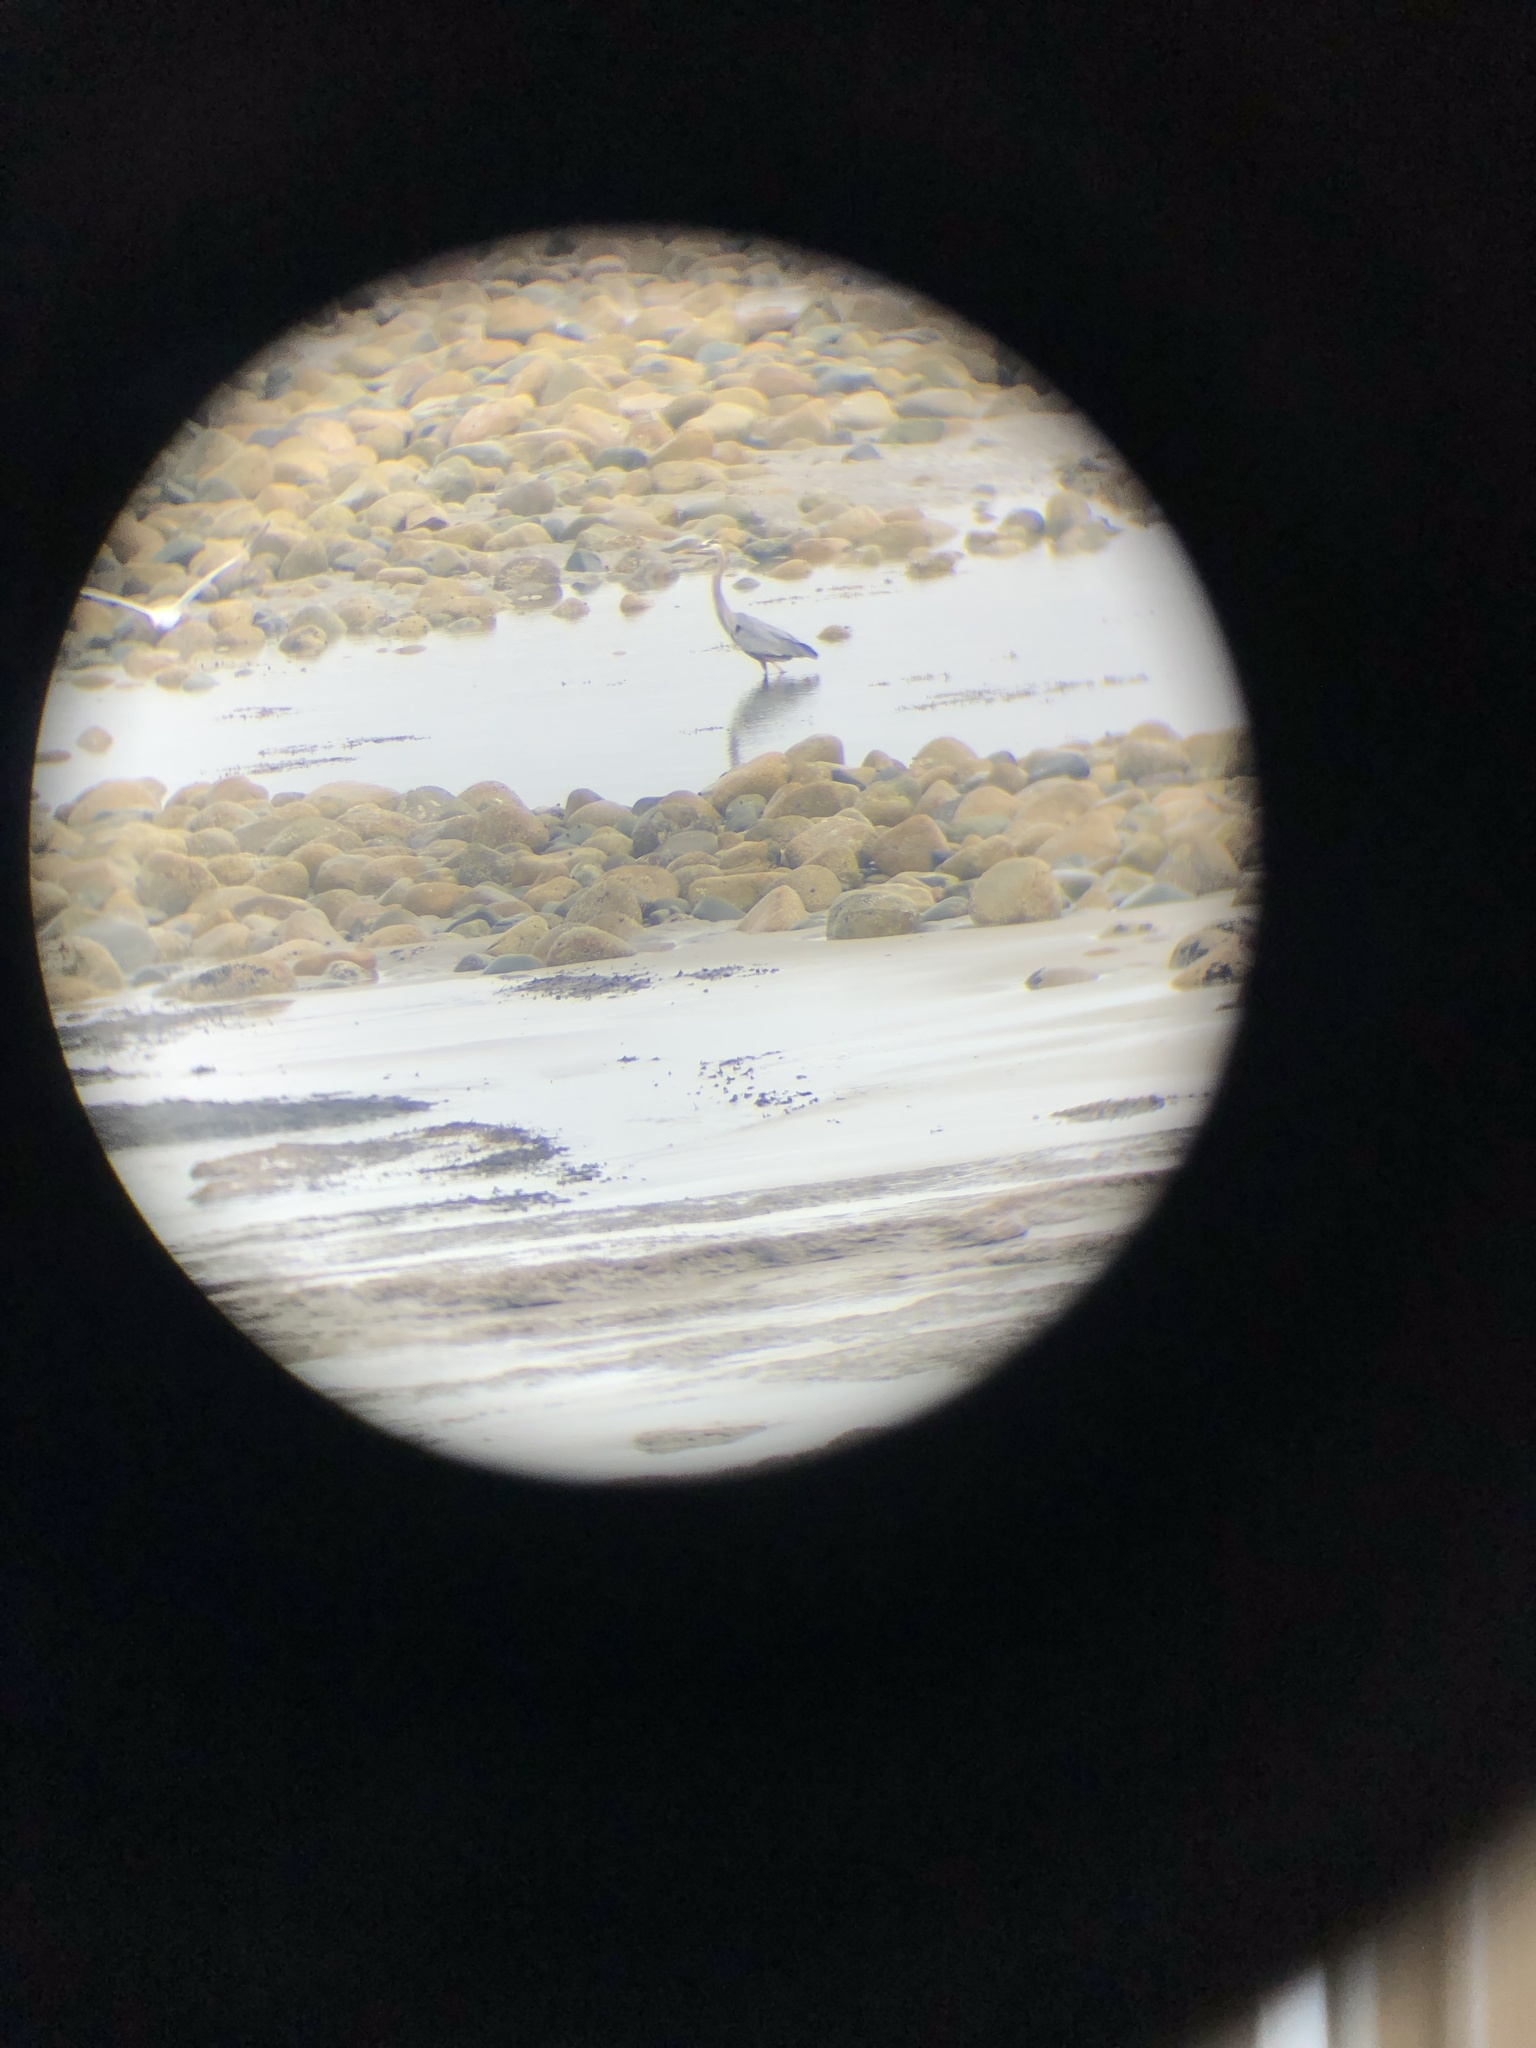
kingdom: Animalia
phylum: Chordata
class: Aves
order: Pelecaniformes
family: Ardeidae
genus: Ardea
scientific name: Ardea herodias
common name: Great blue heron
